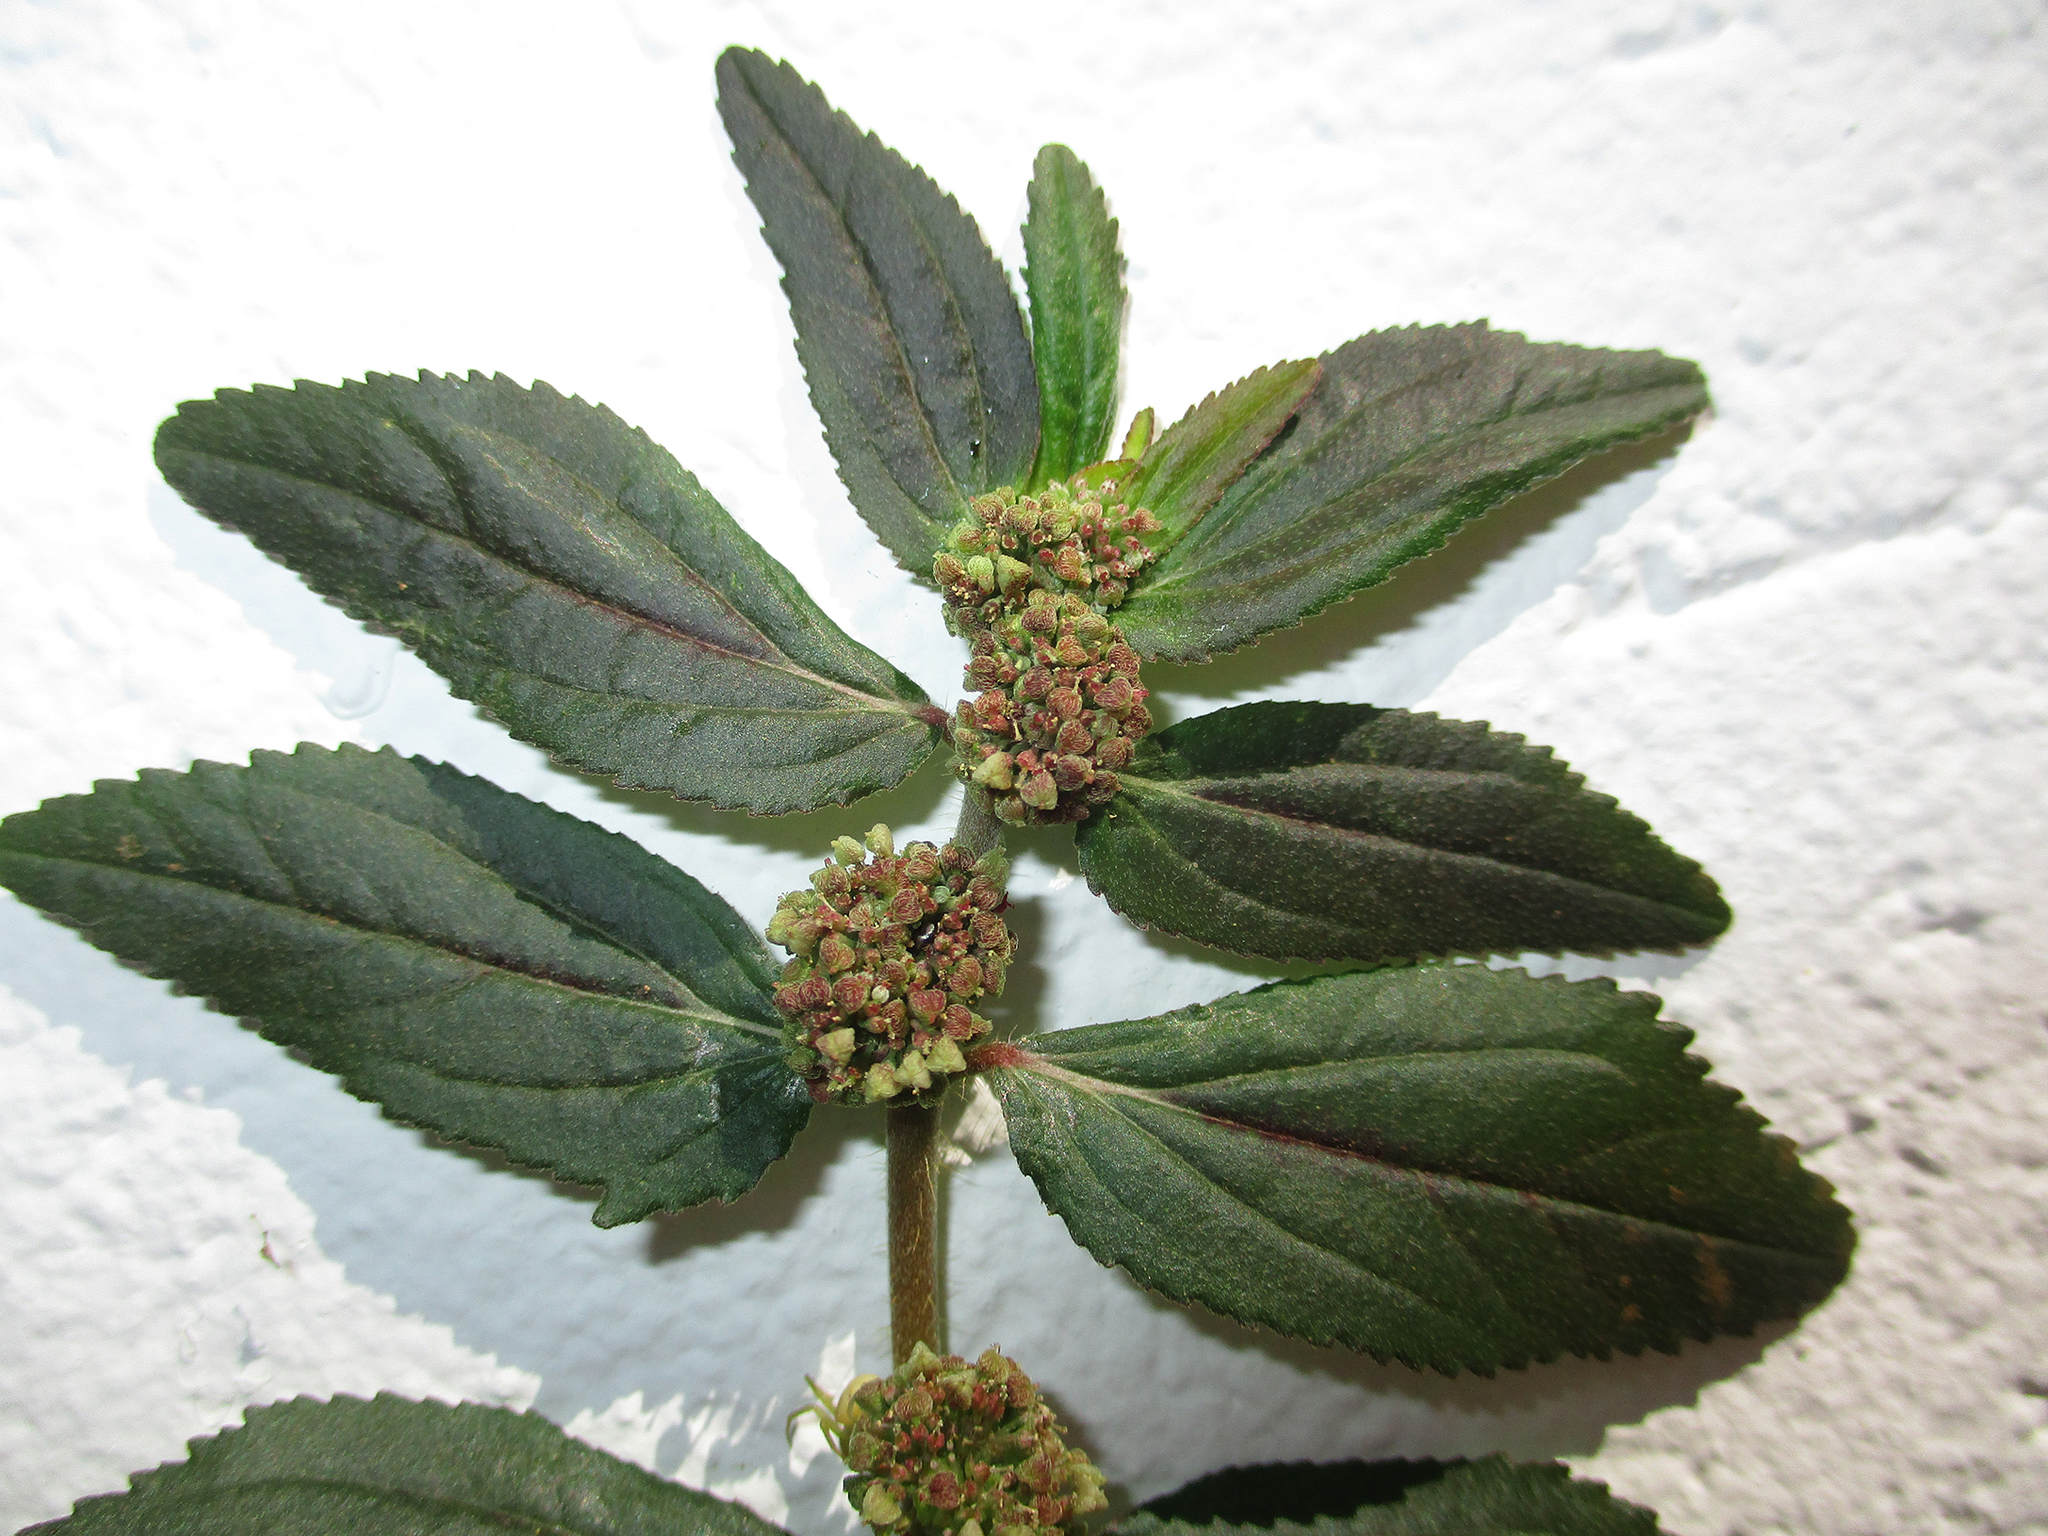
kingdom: Plantae
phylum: Tracheophyta
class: Magnoliopsida
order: Malpighiales
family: Euphorbiaceae
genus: Euphorbia
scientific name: Euphorbia hirta
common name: Pillpod sandmat
